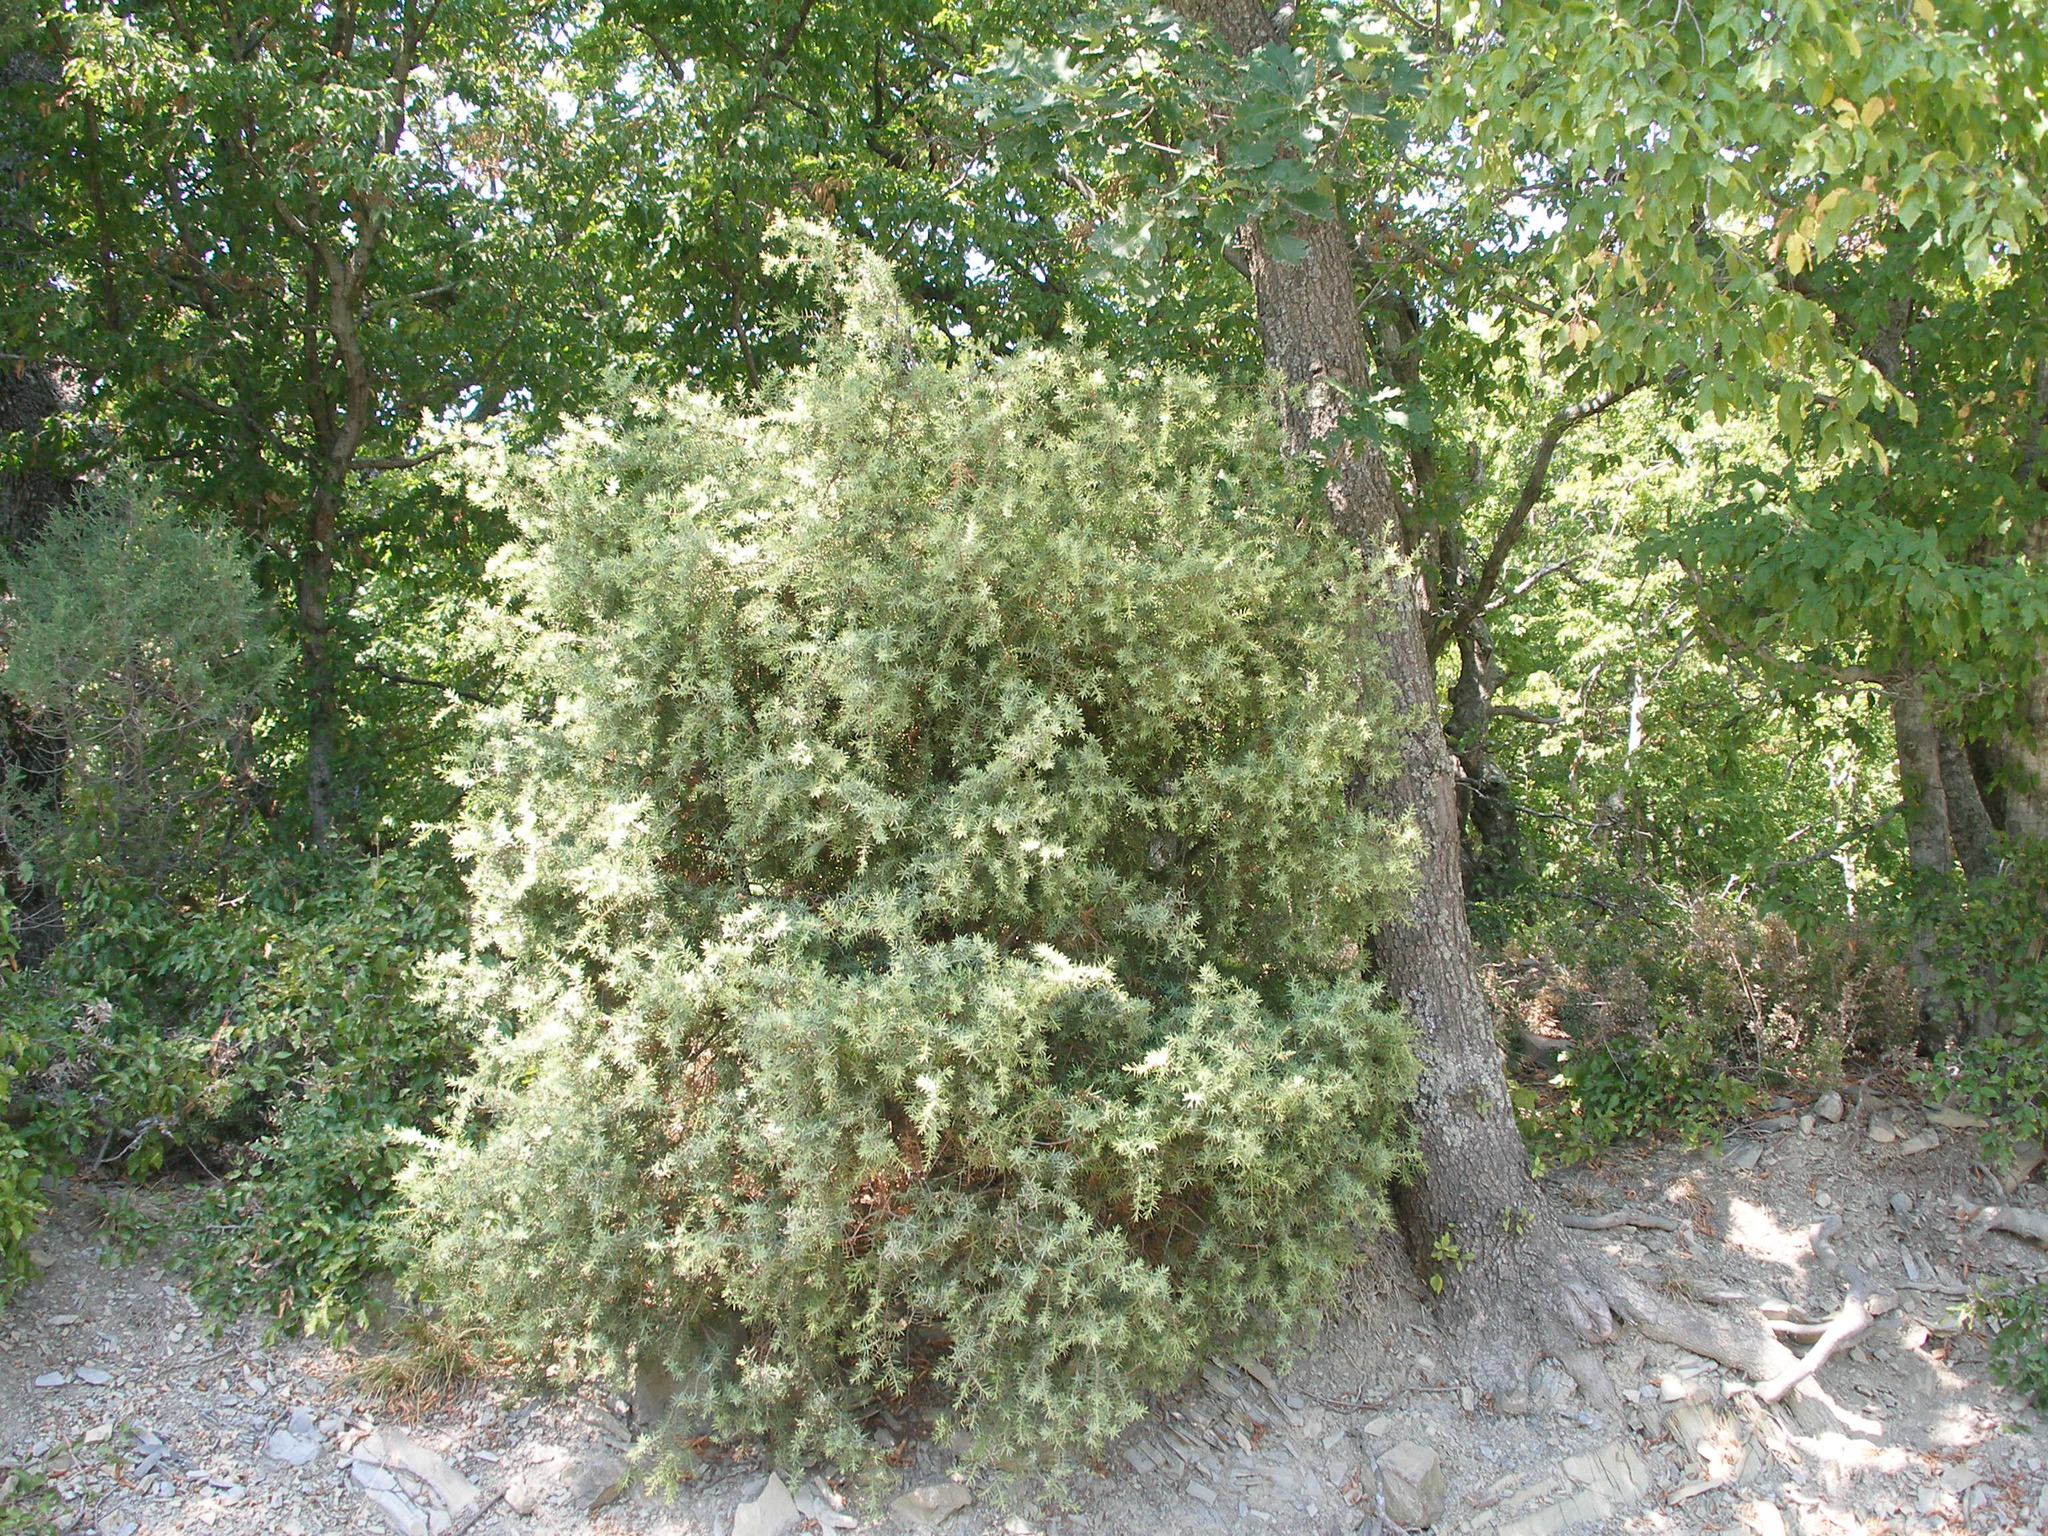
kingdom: Plantae
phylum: Tracheophyta
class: Pinopsida
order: Pinales
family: Cupressaceae
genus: Juniperus
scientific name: Juniperus oxycedrus
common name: Prickly juniper
